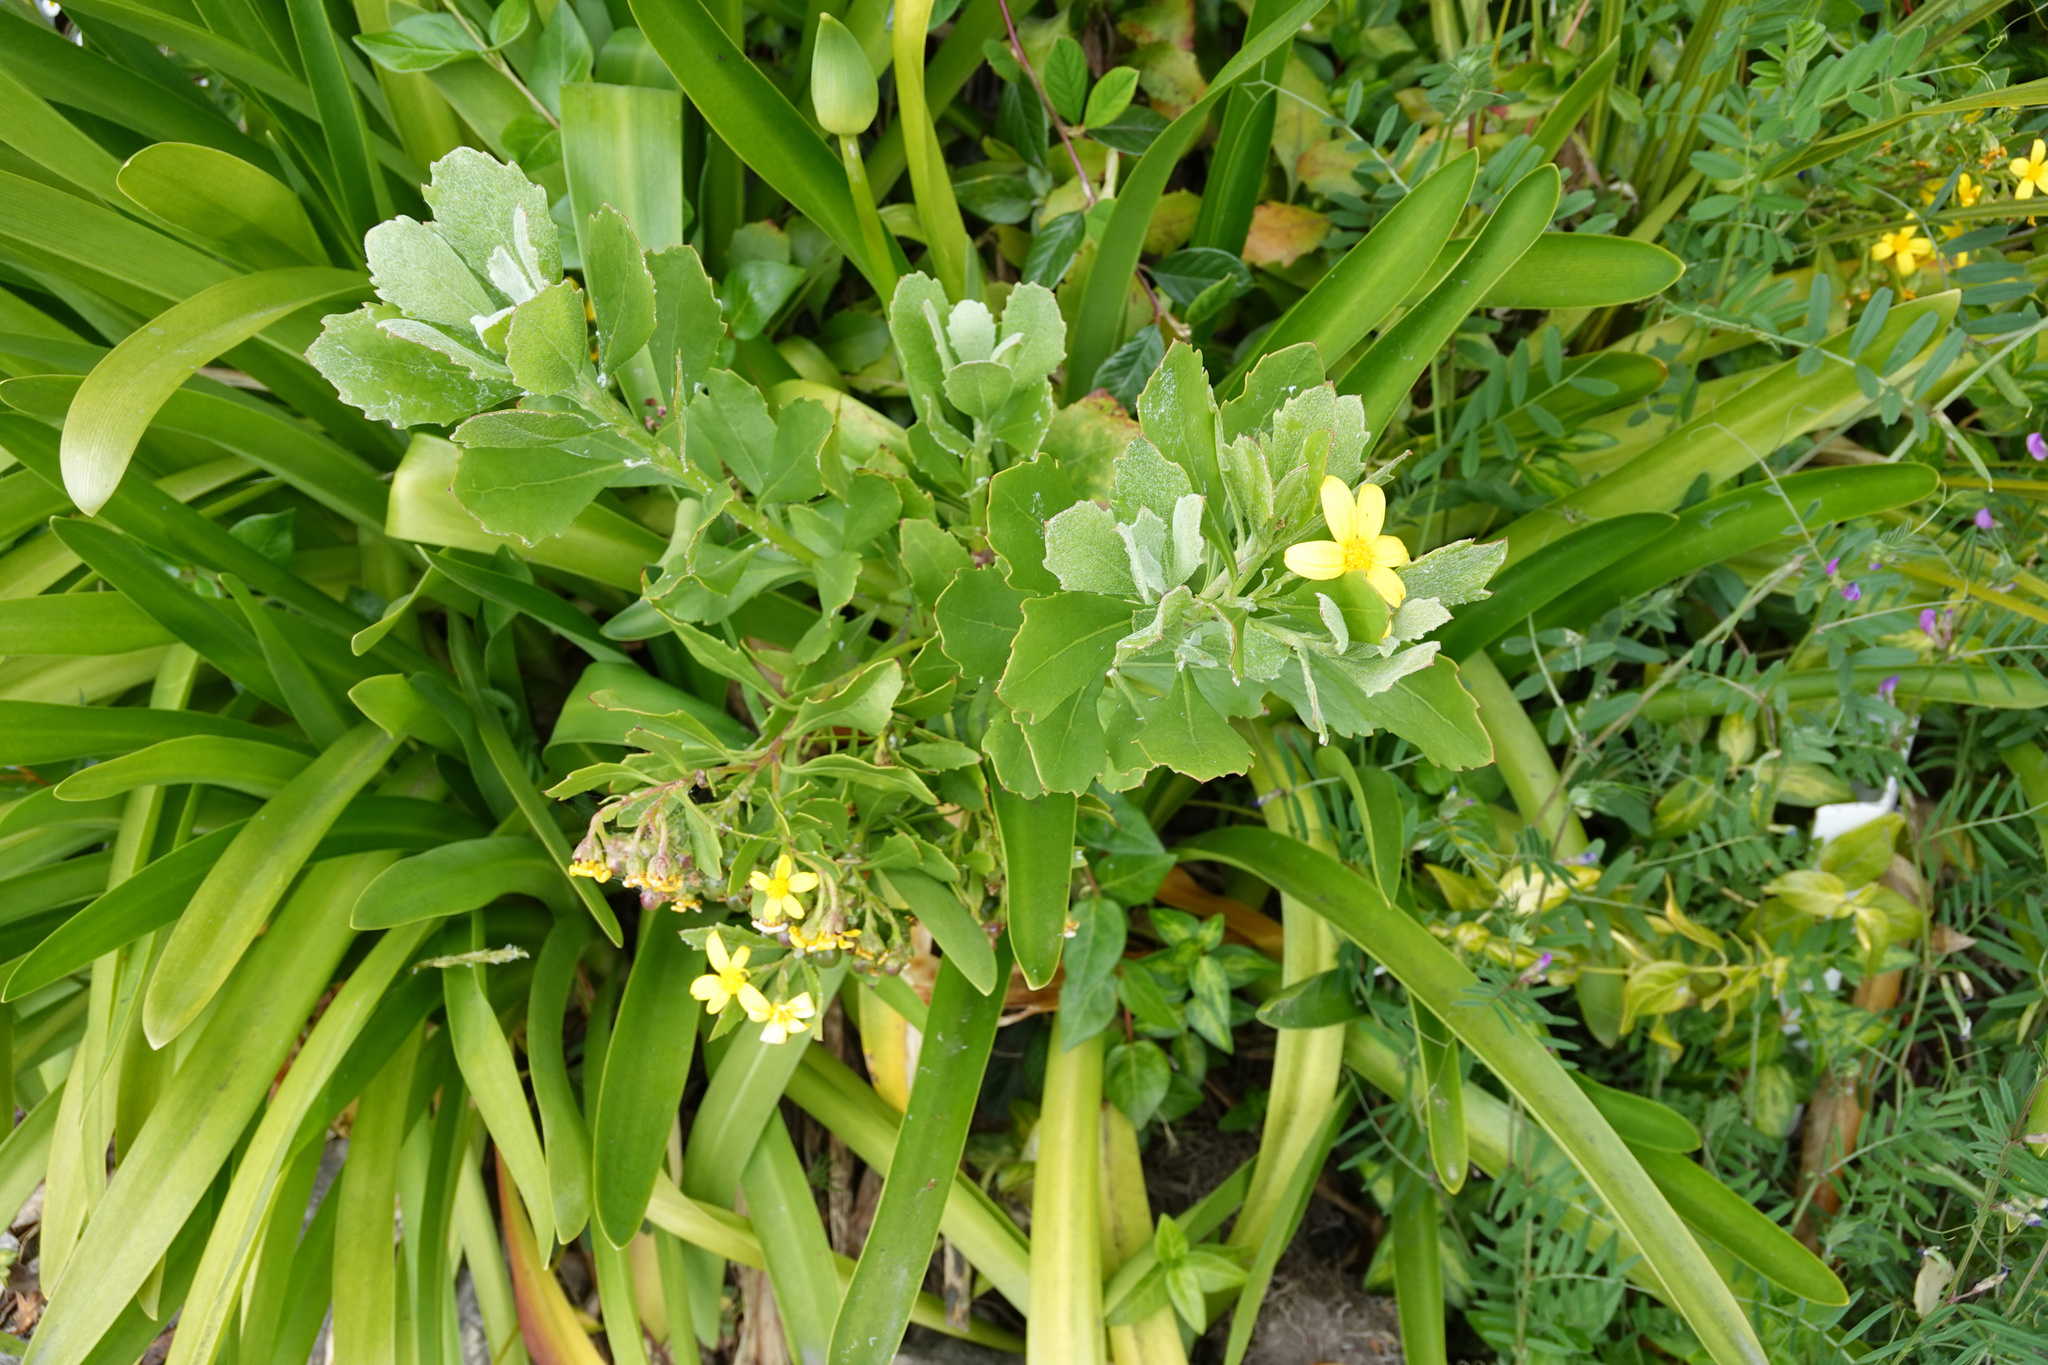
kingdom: Plantae
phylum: Tracheophyta
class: Magnoliopsida
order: Asterales
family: Asteraceae
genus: Osteospermum
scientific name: Osteospermum moniliferum
